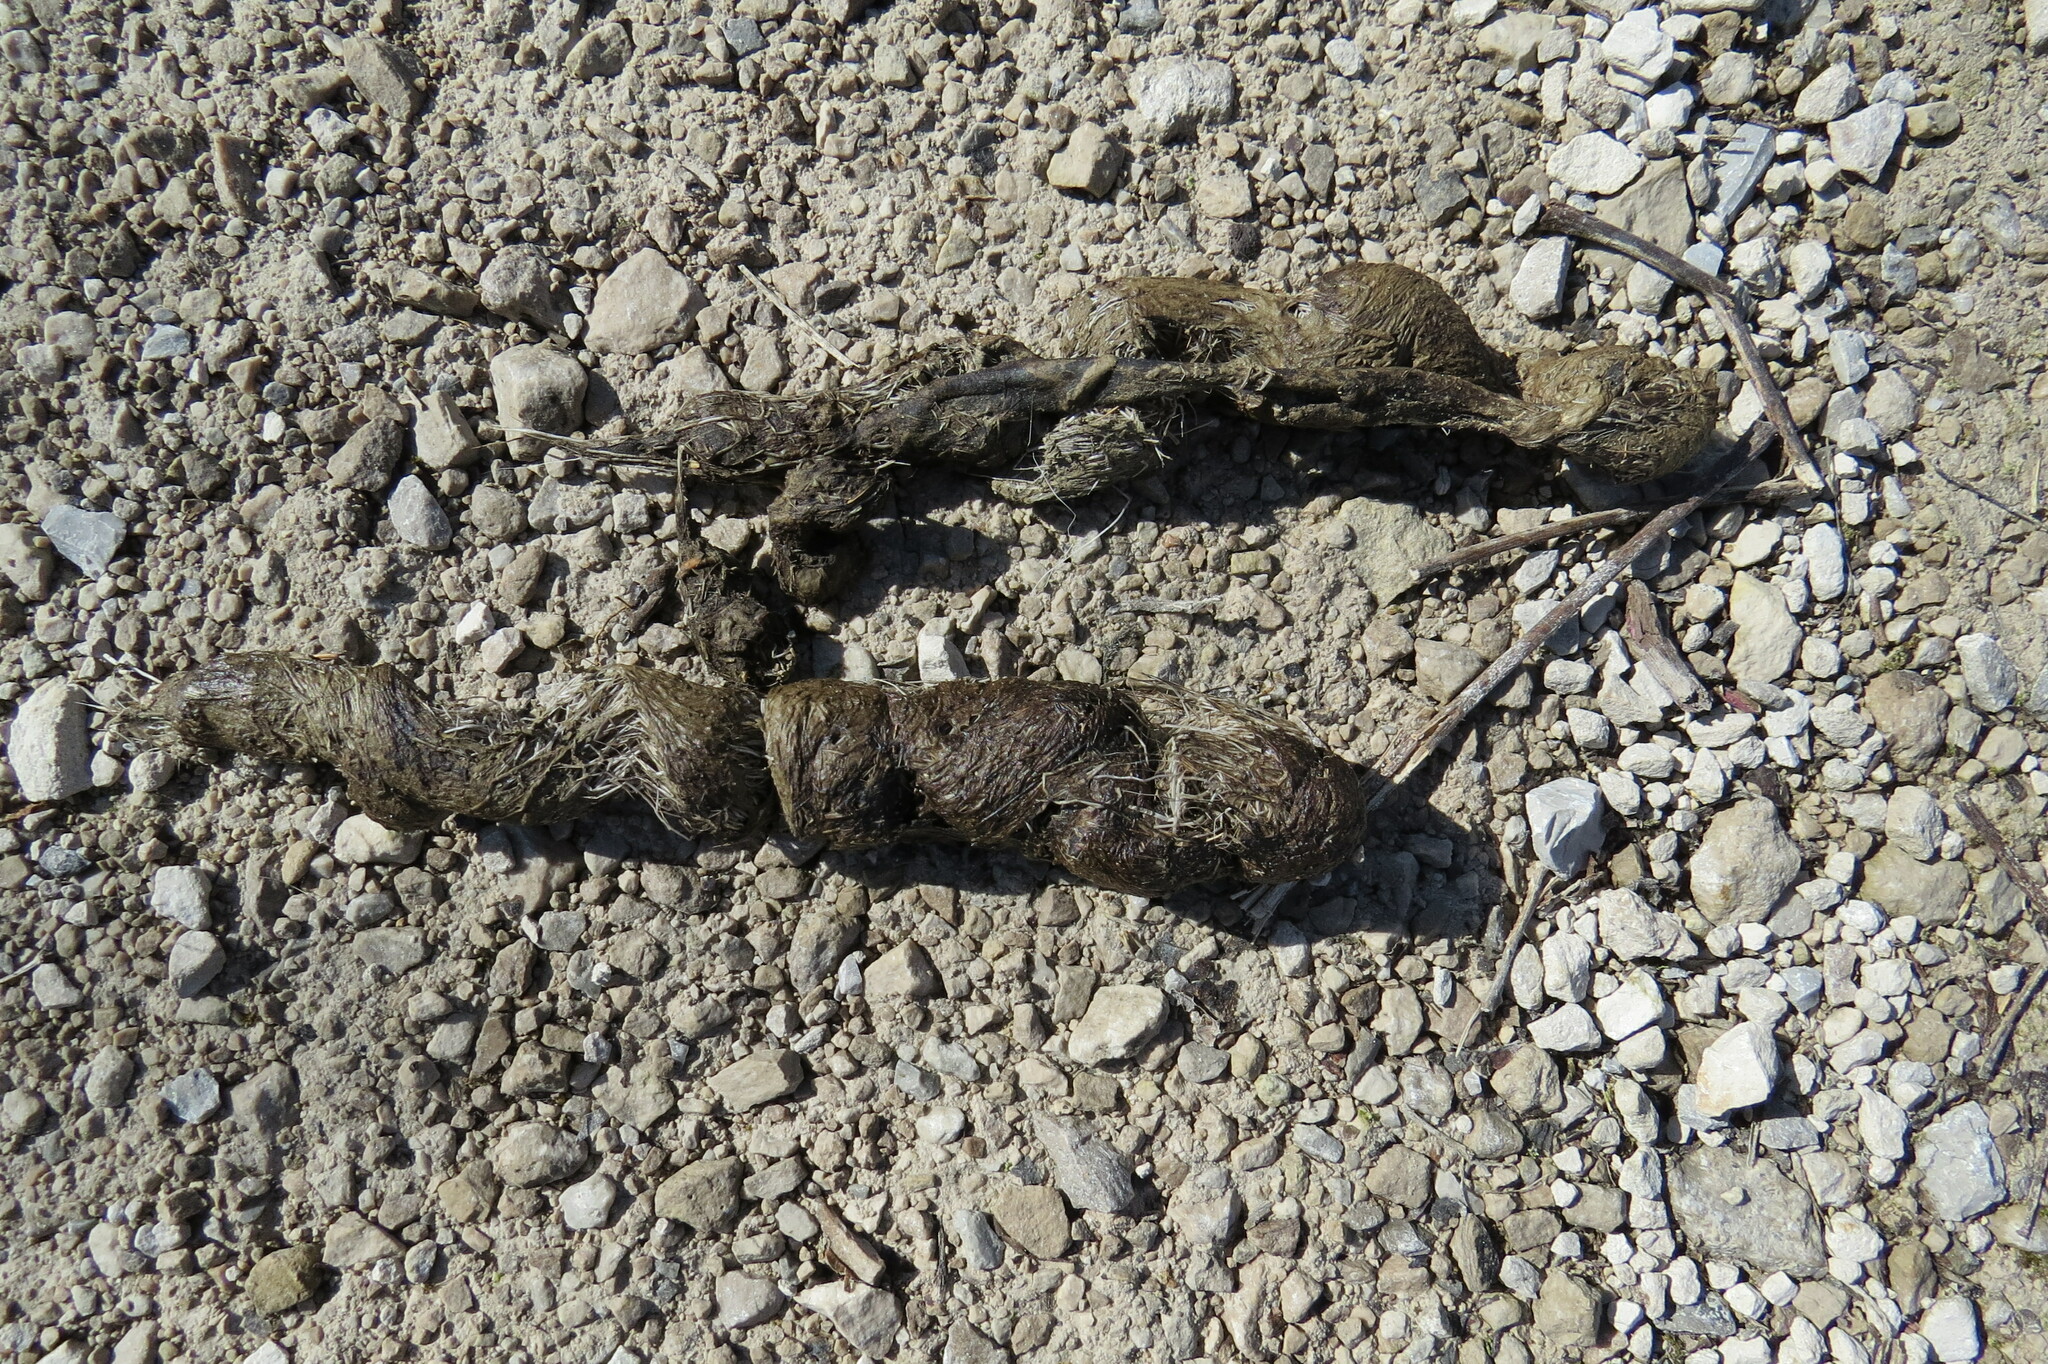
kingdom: Animalia
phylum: Chordata
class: Mammalia
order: Carnivora
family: Canidae
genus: Canis
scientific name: Canis latrans
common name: Coyote
